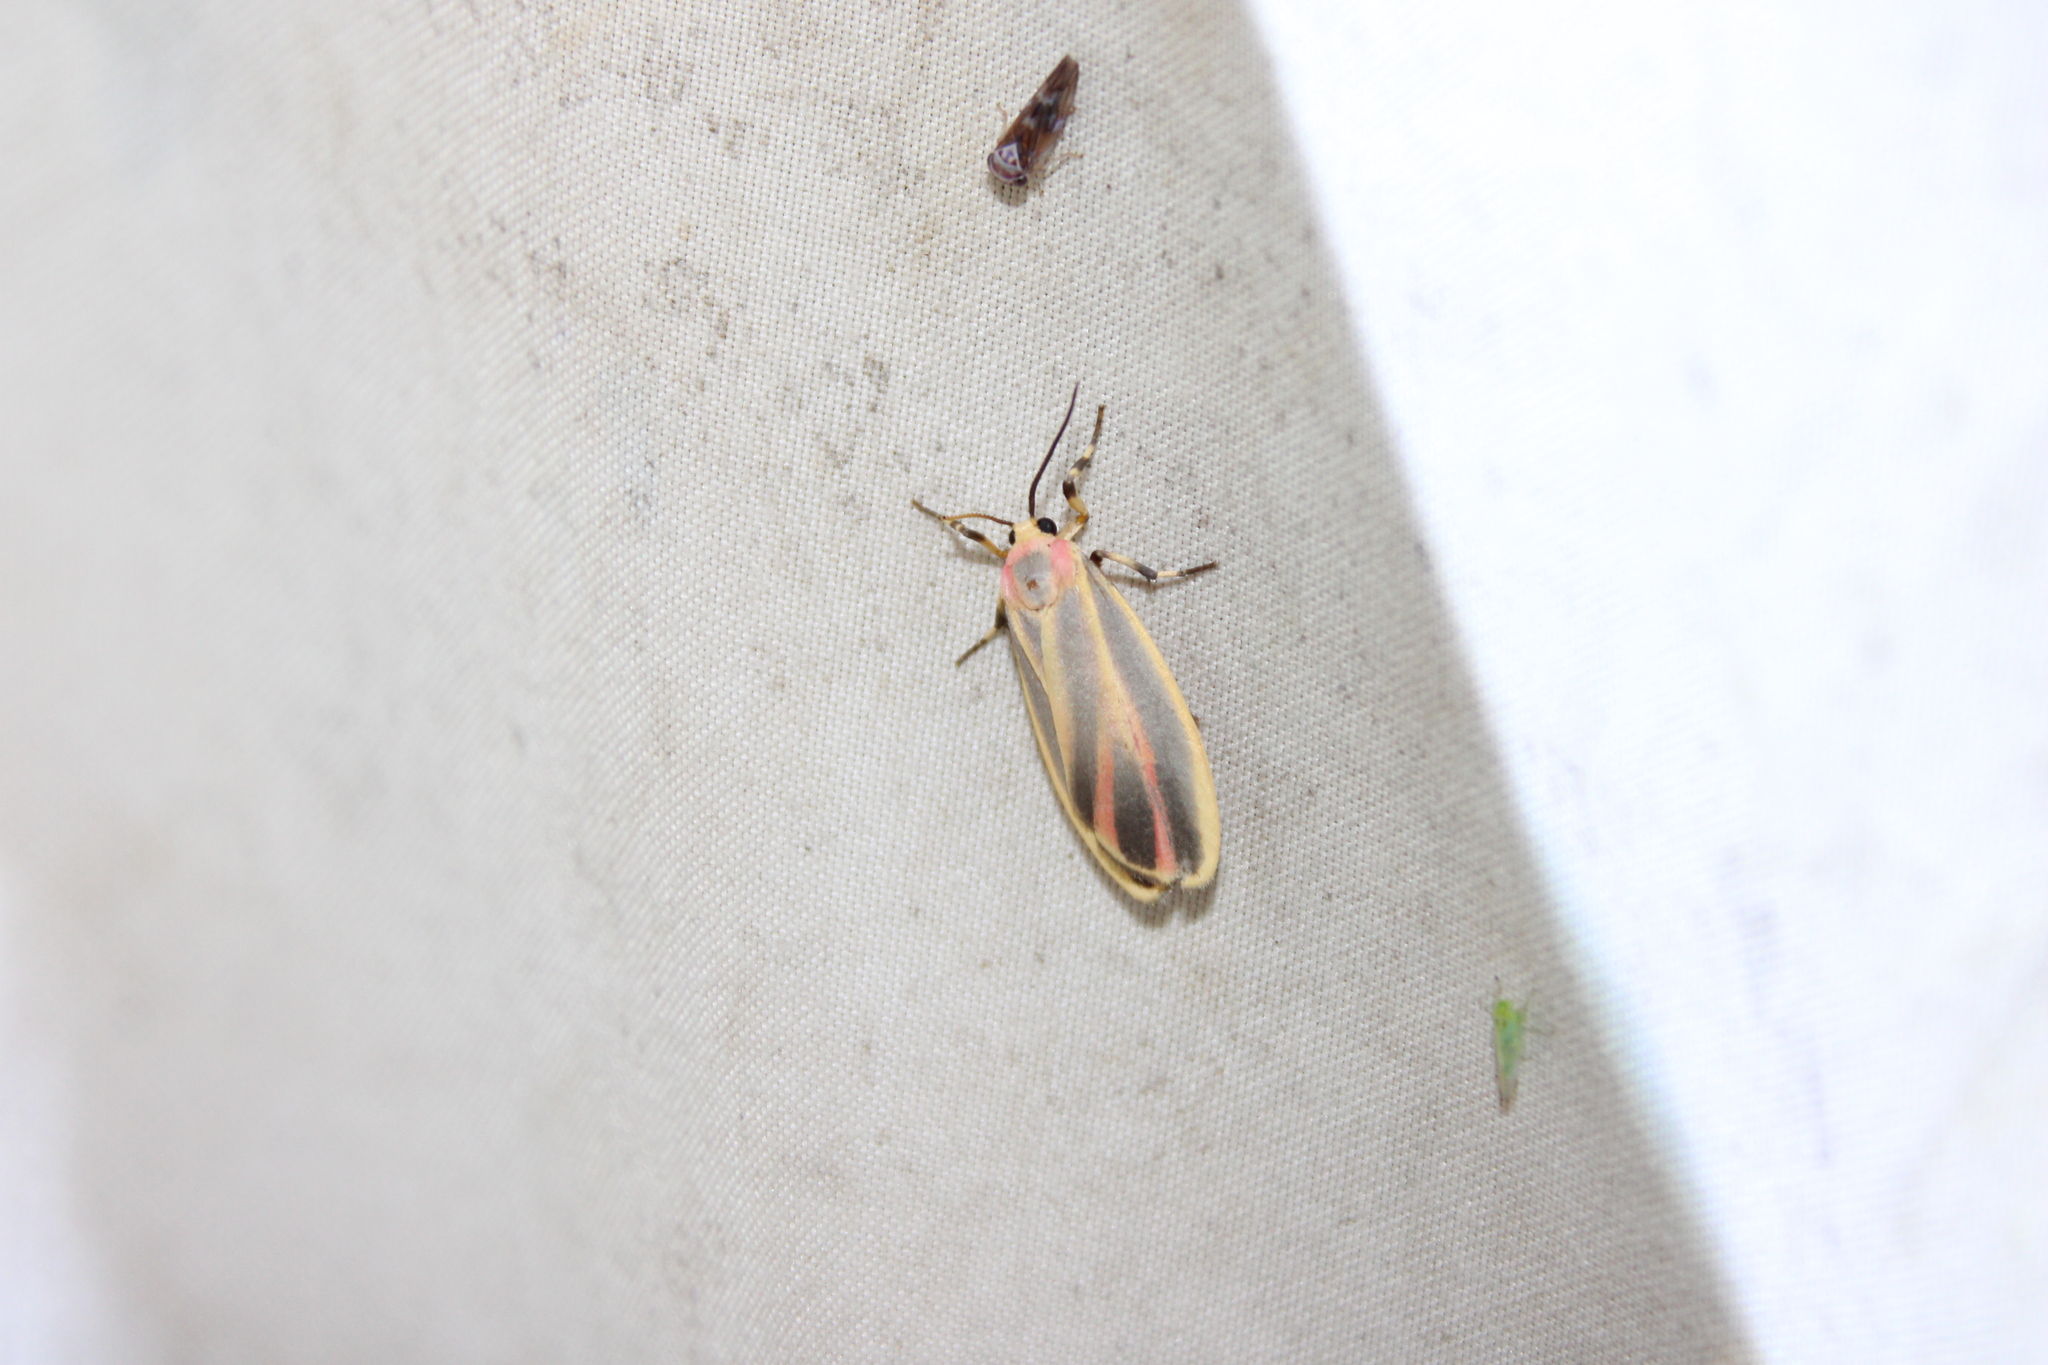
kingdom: Animalia
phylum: Arthropoda
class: Insecta
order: Lepidoptera
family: Erebidae
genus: Hypoprepia
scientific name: Hypoprepia fucosa
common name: Painted lichen moth
